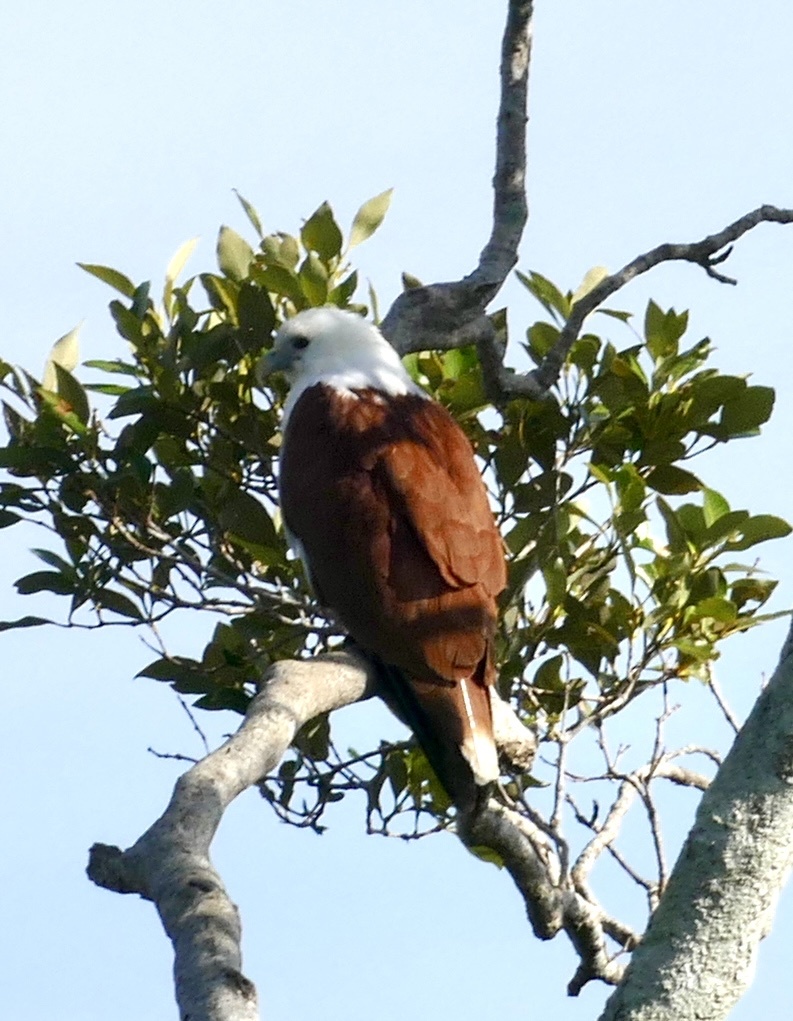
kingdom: Animalia
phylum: Chordata
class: Aves
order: Accipitriformes
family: Accipitridae
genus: Haliastur
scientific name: Haliastur indus
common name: Brahminy kite
